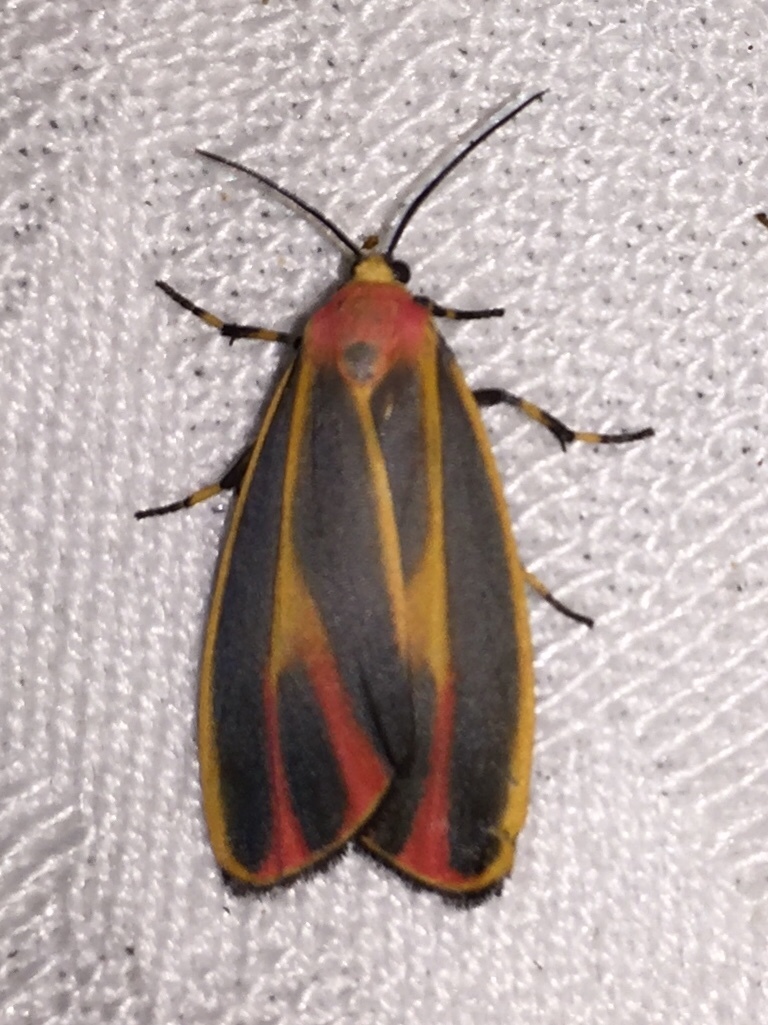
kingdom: Animalia
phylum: Arthropoda
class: Insecta
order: Lepidoptera
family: Erebidae
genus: Hypoprepia
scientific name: Hypoprepia fucosa
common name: Painted lichen moth
